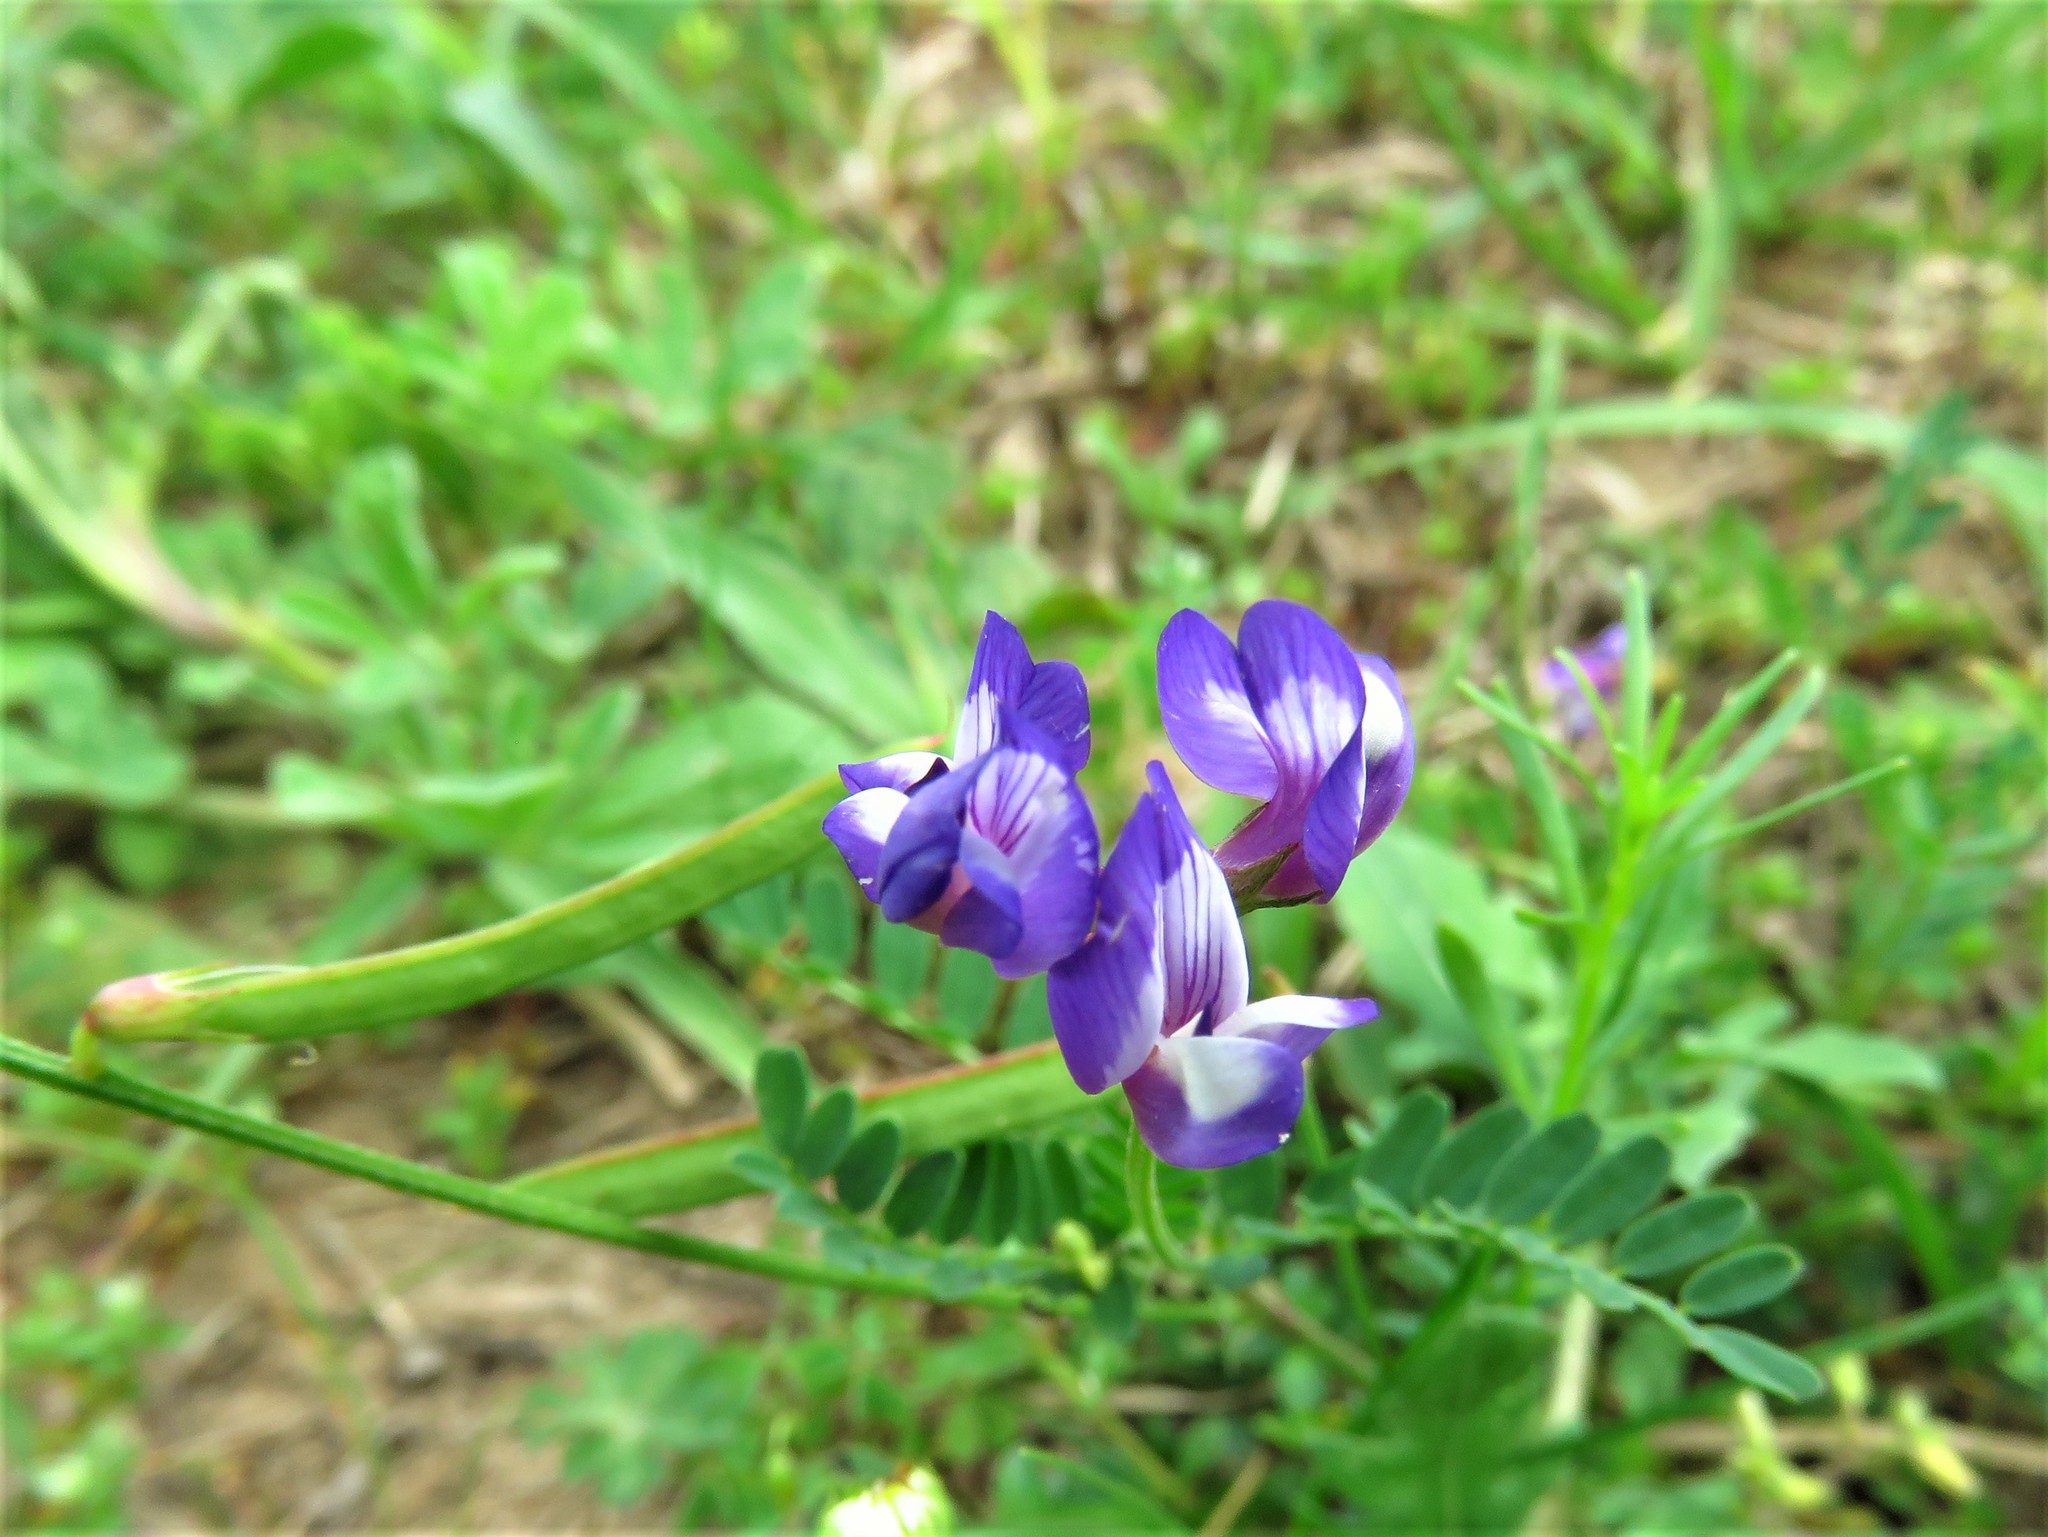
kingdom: Plantae
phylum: Tracheophyta
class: Magnoliopsida
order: Fabales
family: Fabaceae
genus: Astragalus
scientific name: Astragalus leptocarpus
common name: Bodkin milk-vetch
